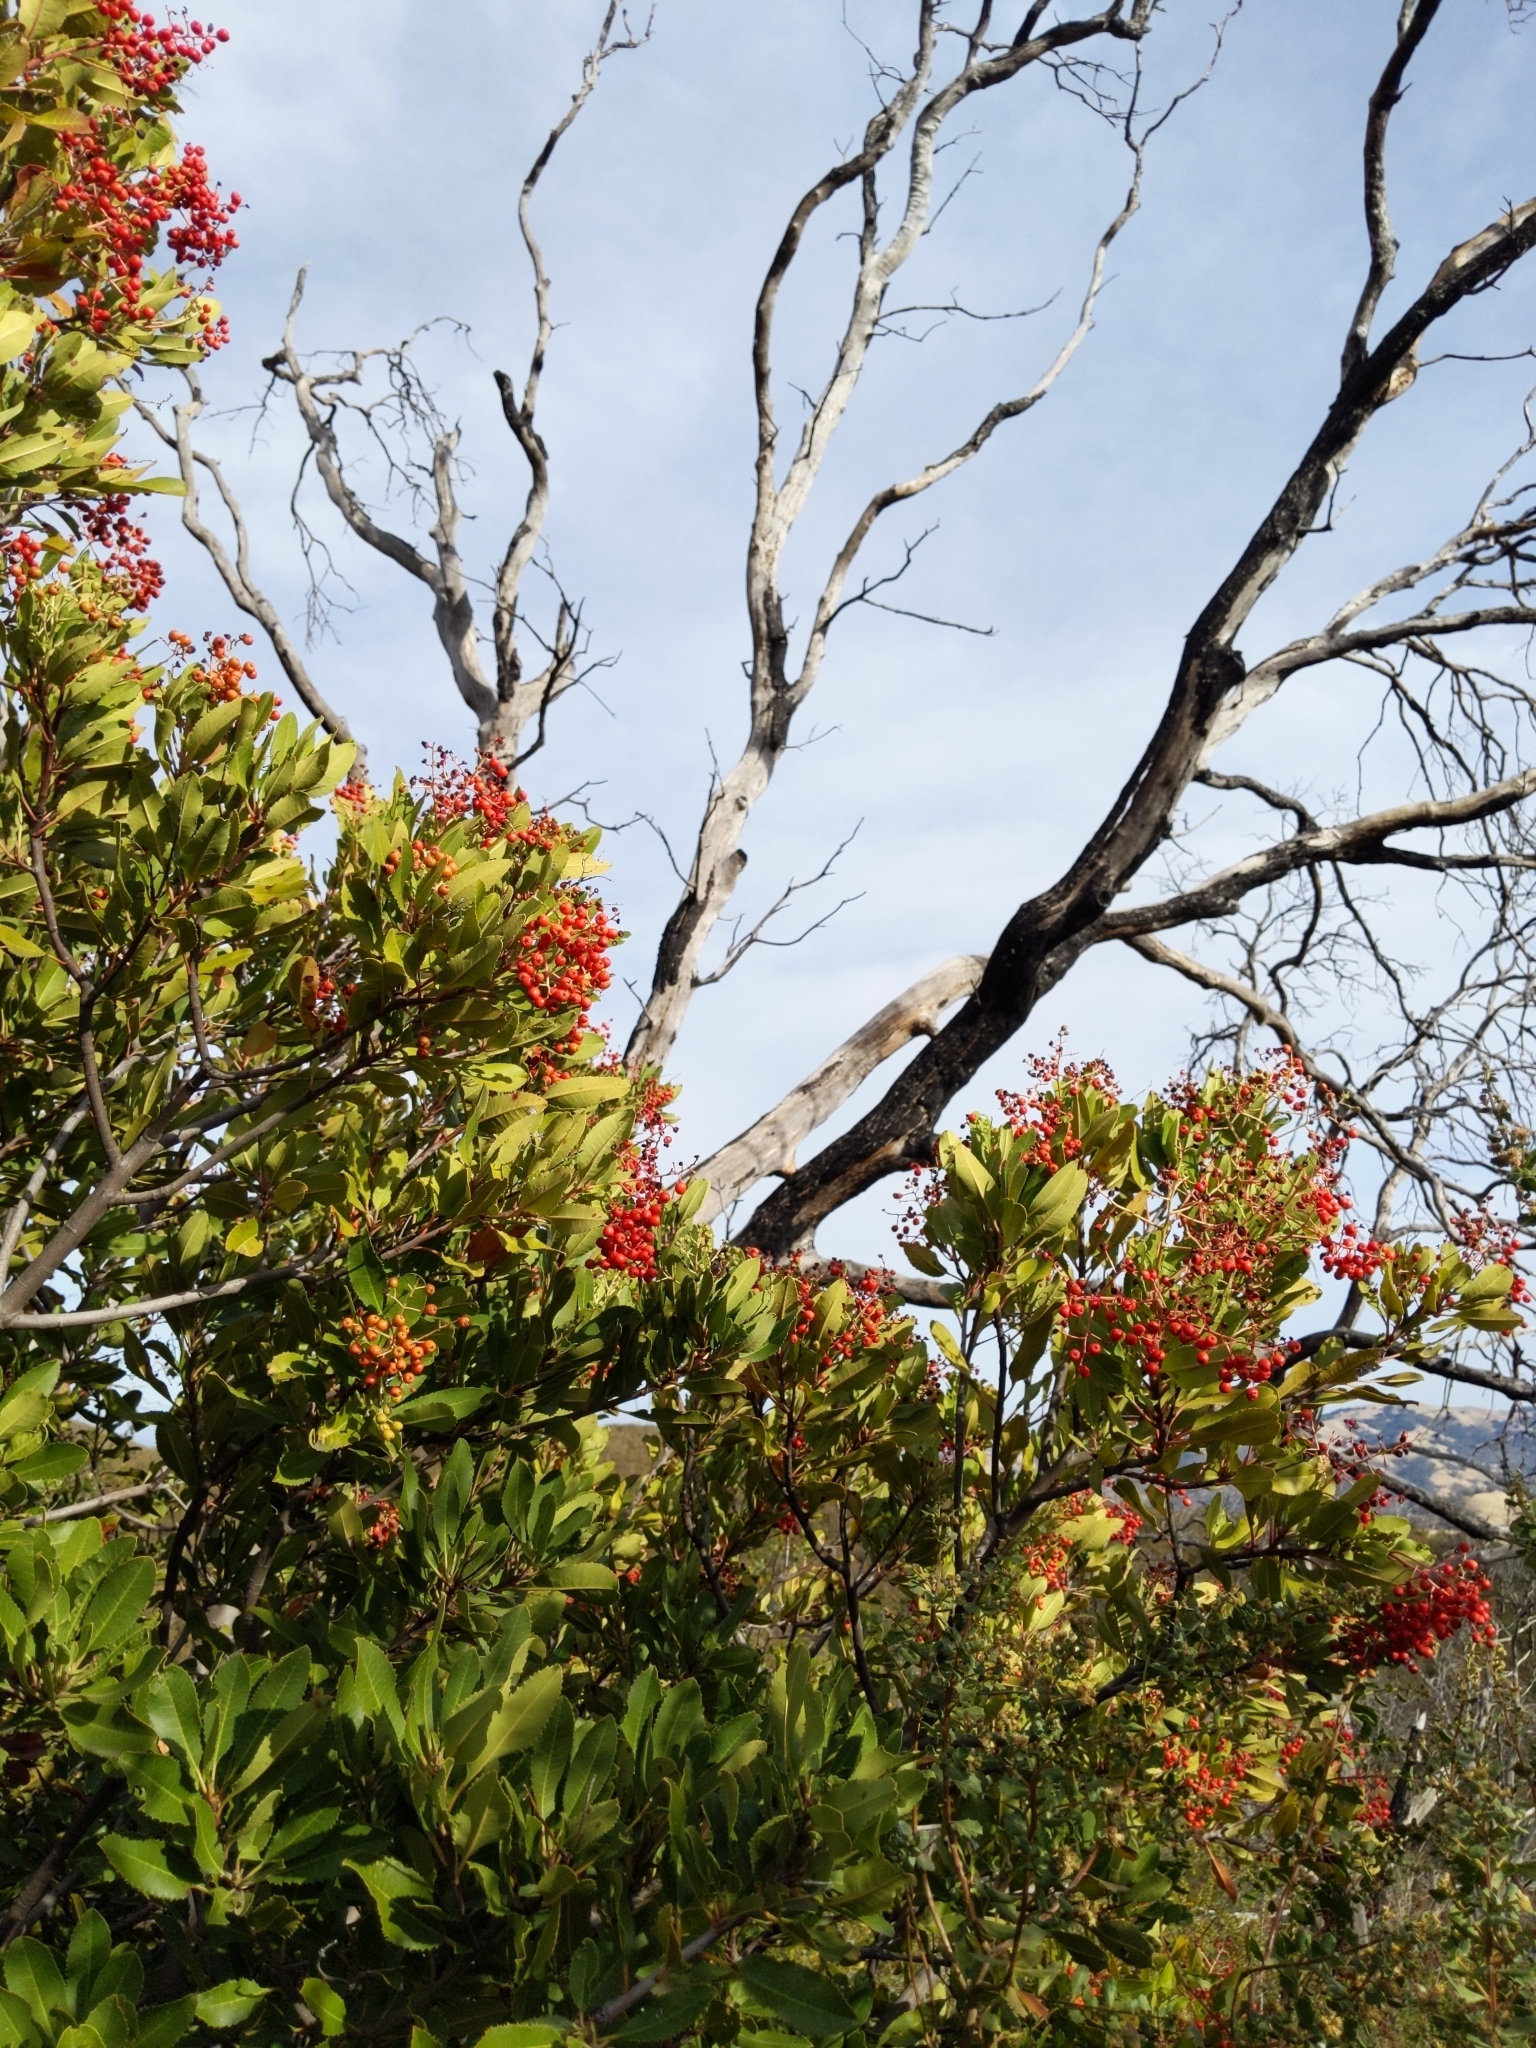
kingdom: Plantae
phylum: Tracheophyta
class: Magnoliopsida
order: Rosales
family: Rosaceae
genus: Heteromeles
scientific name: Heteromeles arbutifolia
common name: California-holly
